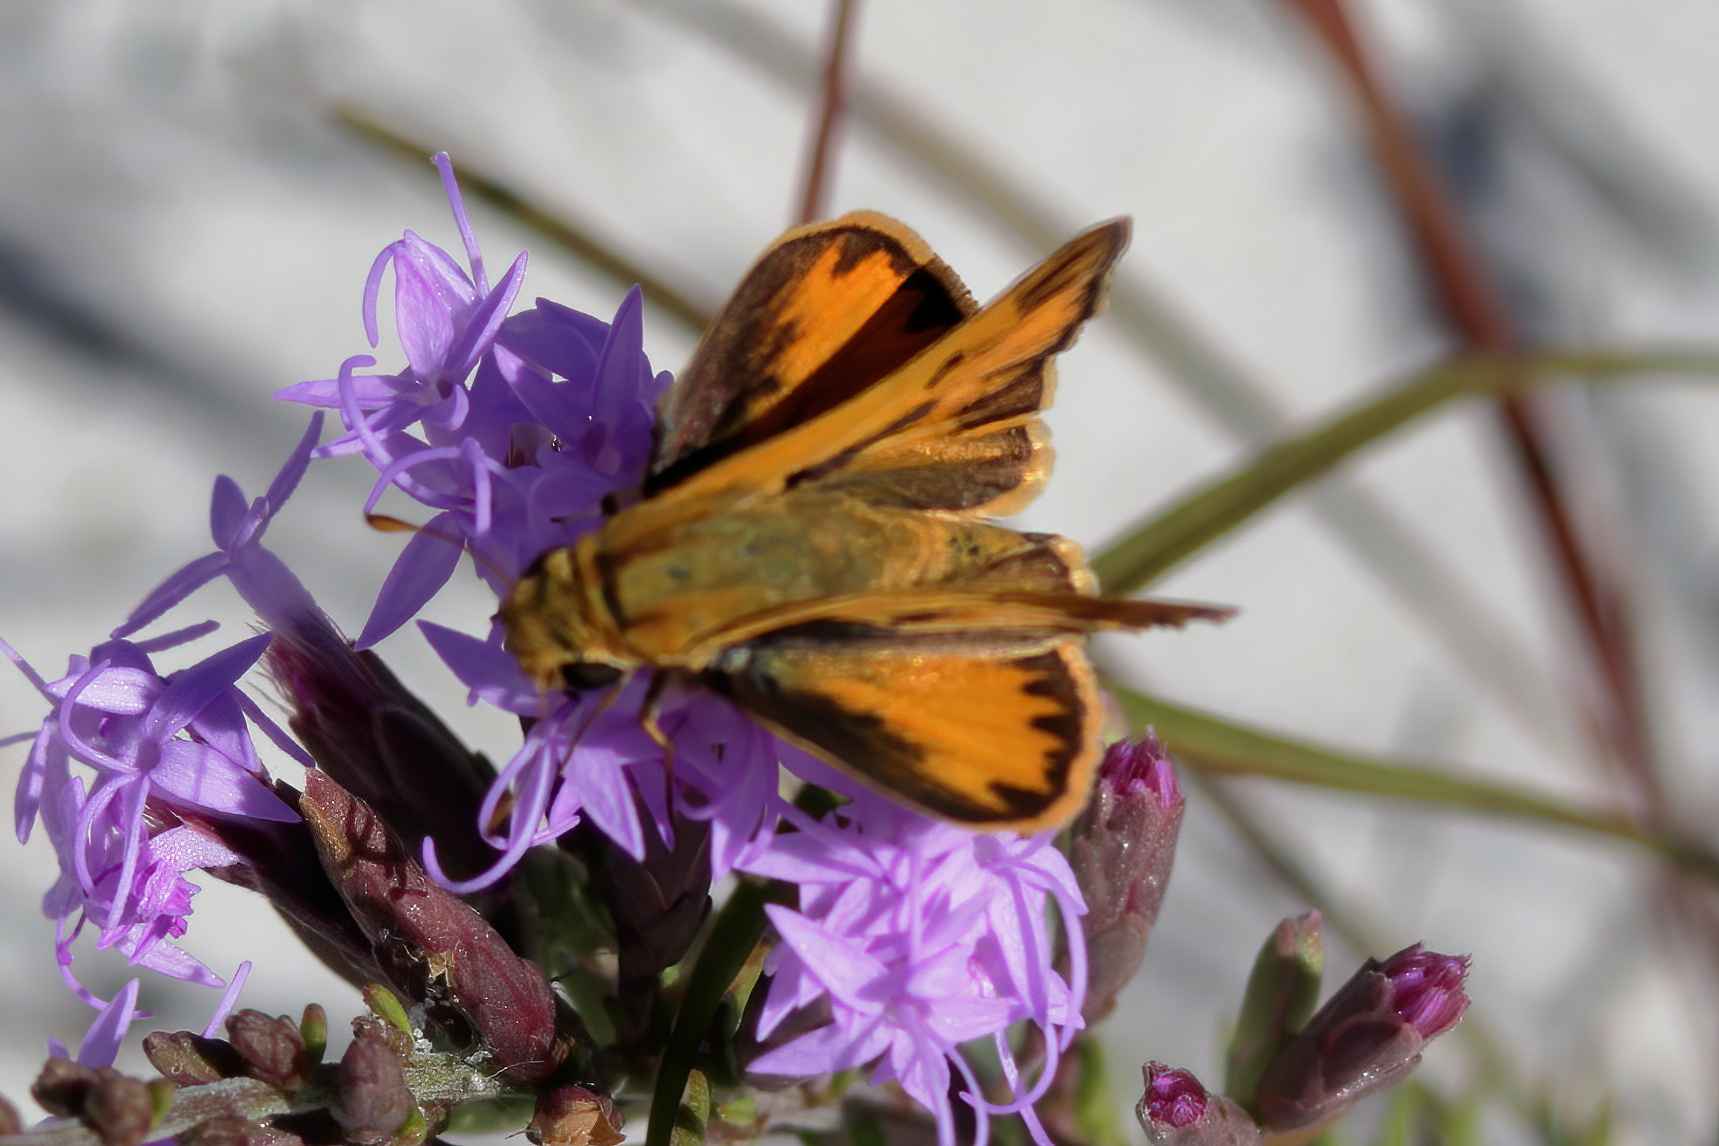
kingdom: Animalia
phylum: Arthropoda
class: Insecta
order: Lepidoptera
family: Hesperiidae
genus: Hylephila
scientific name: Hylephila phyleus
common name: Fiery skipper
